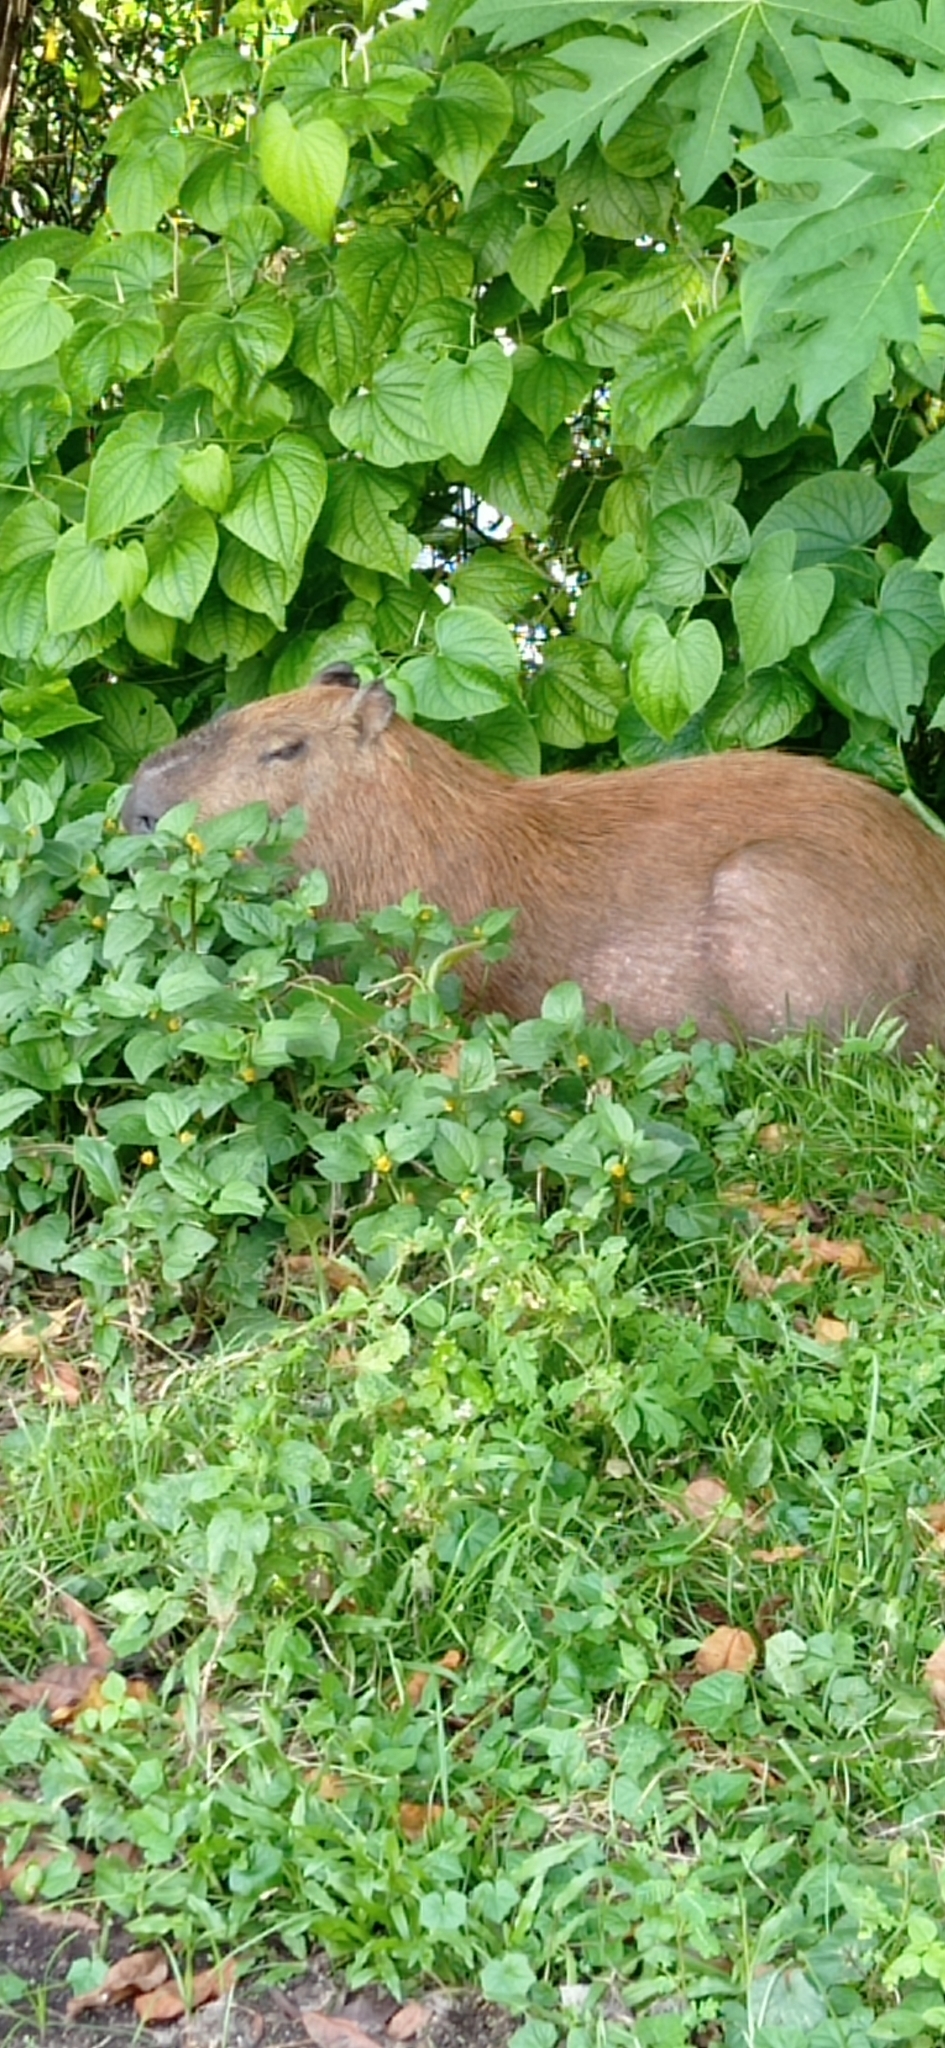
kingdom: Animalia
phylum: Chordata
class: Mammalia
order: Rodentia
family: Caviidae
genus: Hydrochoerus
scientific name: Hydrochoerus hydrochaeris
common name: Capybara
